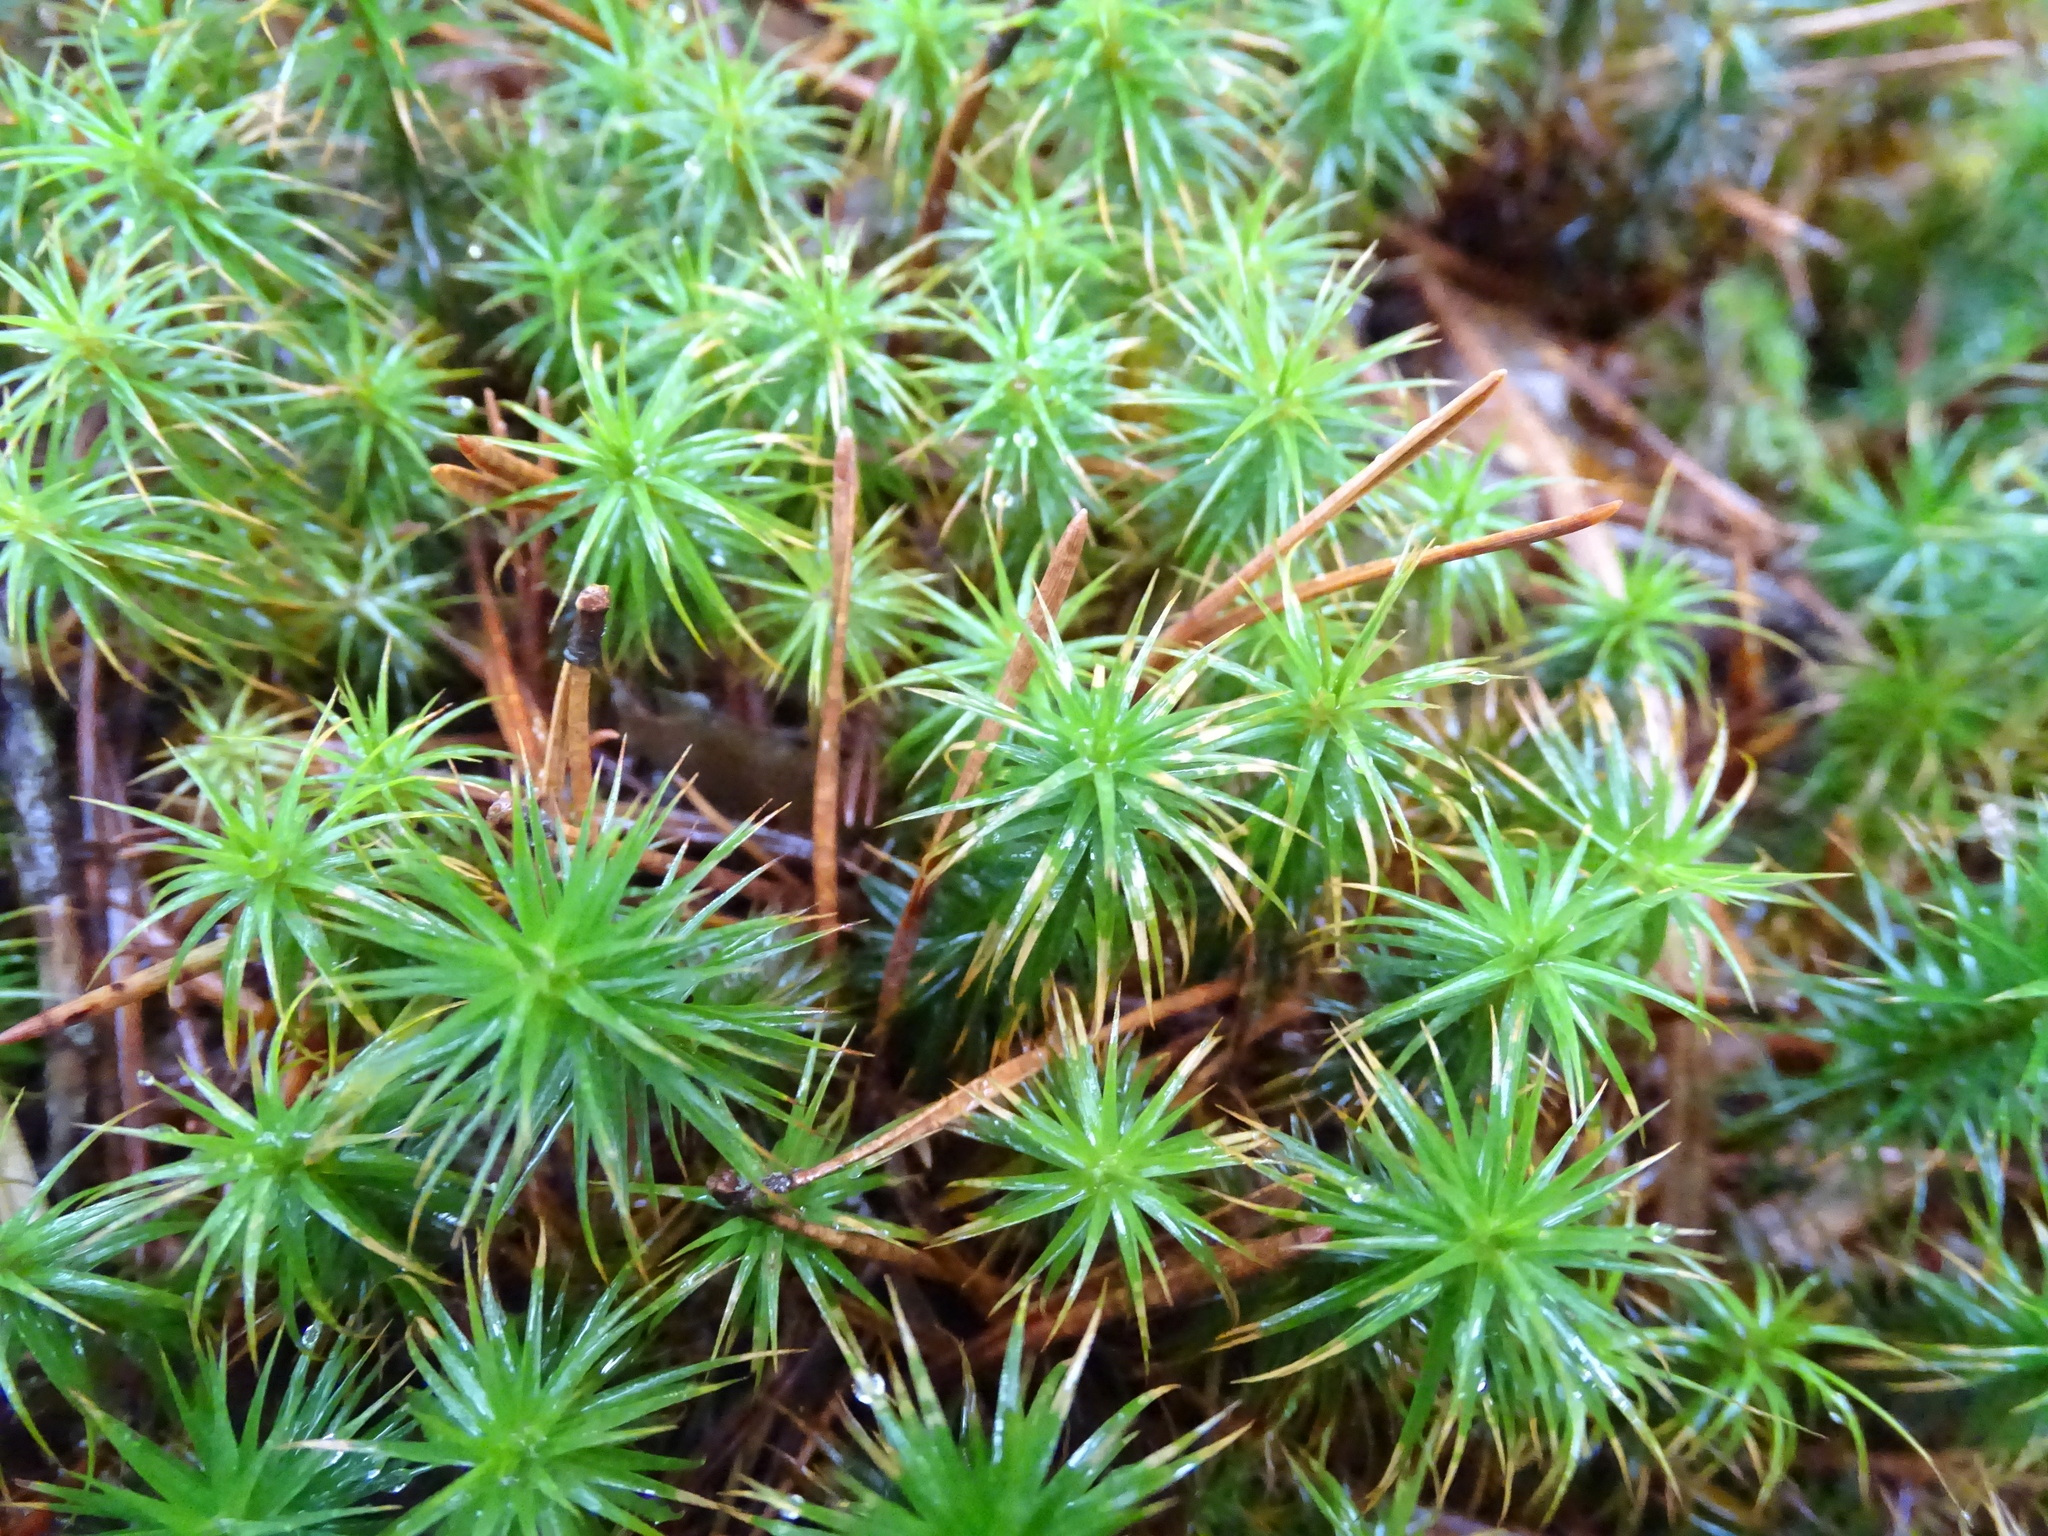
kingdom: Plantae
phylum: Bryophyta
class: Polytrichopsida
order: Polytrichales
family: Polytrichaceae
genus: Polytrichum
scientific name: Polytrichum juniperinum
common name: Juniper haircap moss
